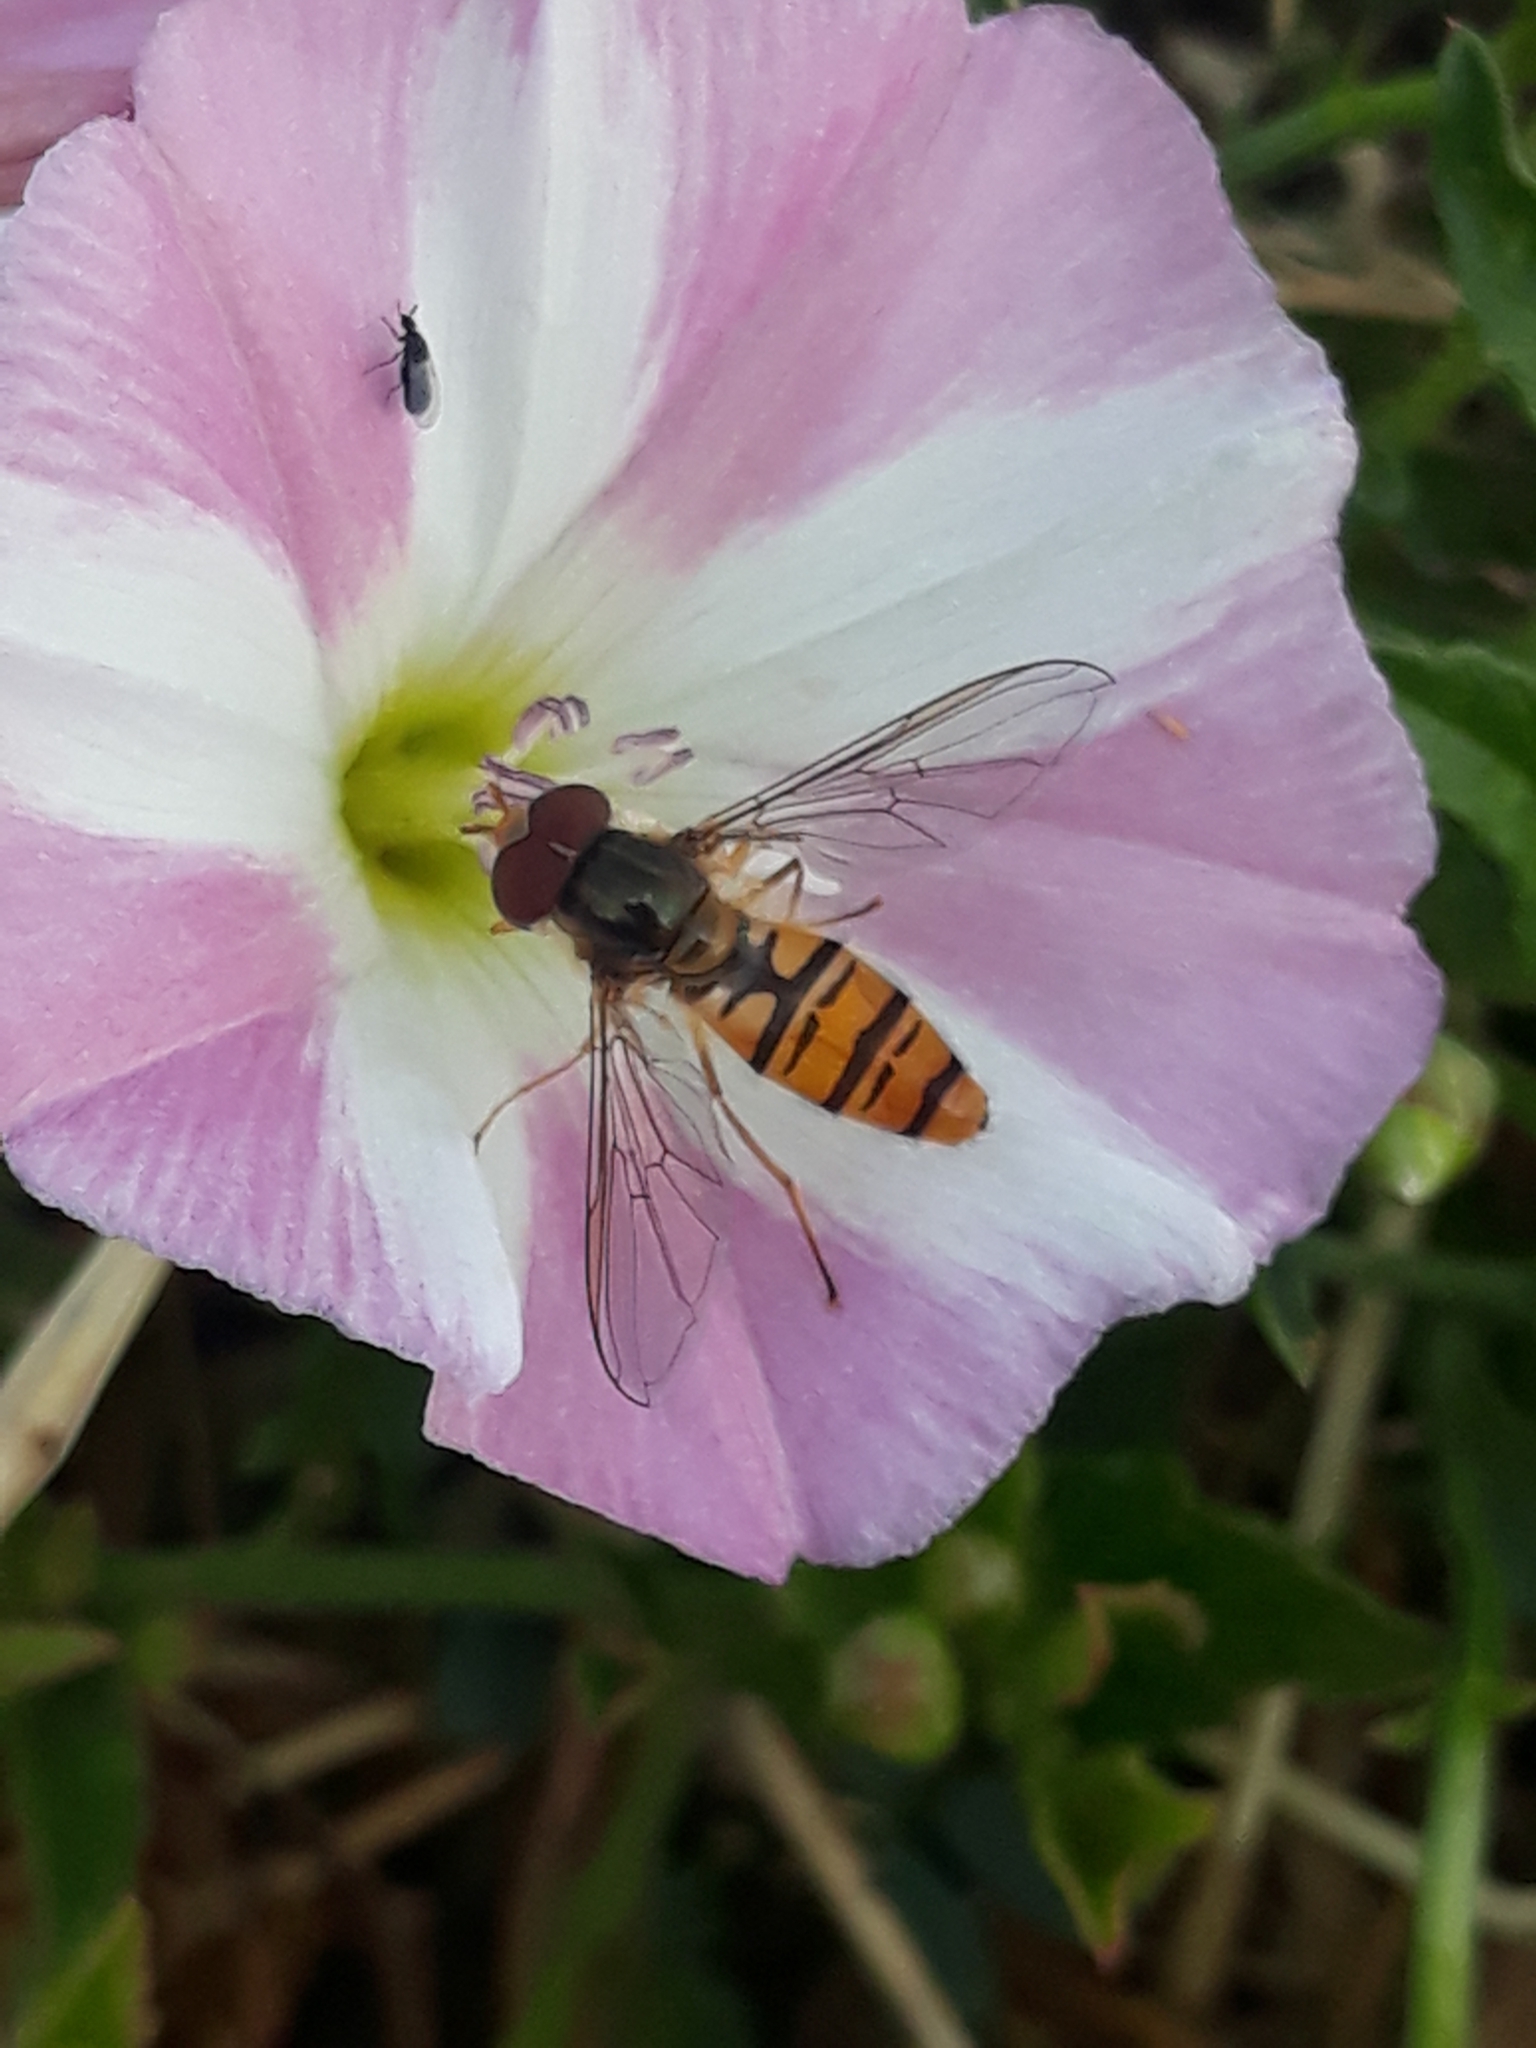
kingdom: Animalia
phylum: Arthropoda
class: Insecta
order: Diptera
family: Syrphidae
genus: Episyrphus
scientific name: Episyrphus balteatus
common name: Marmalade hoverfly
